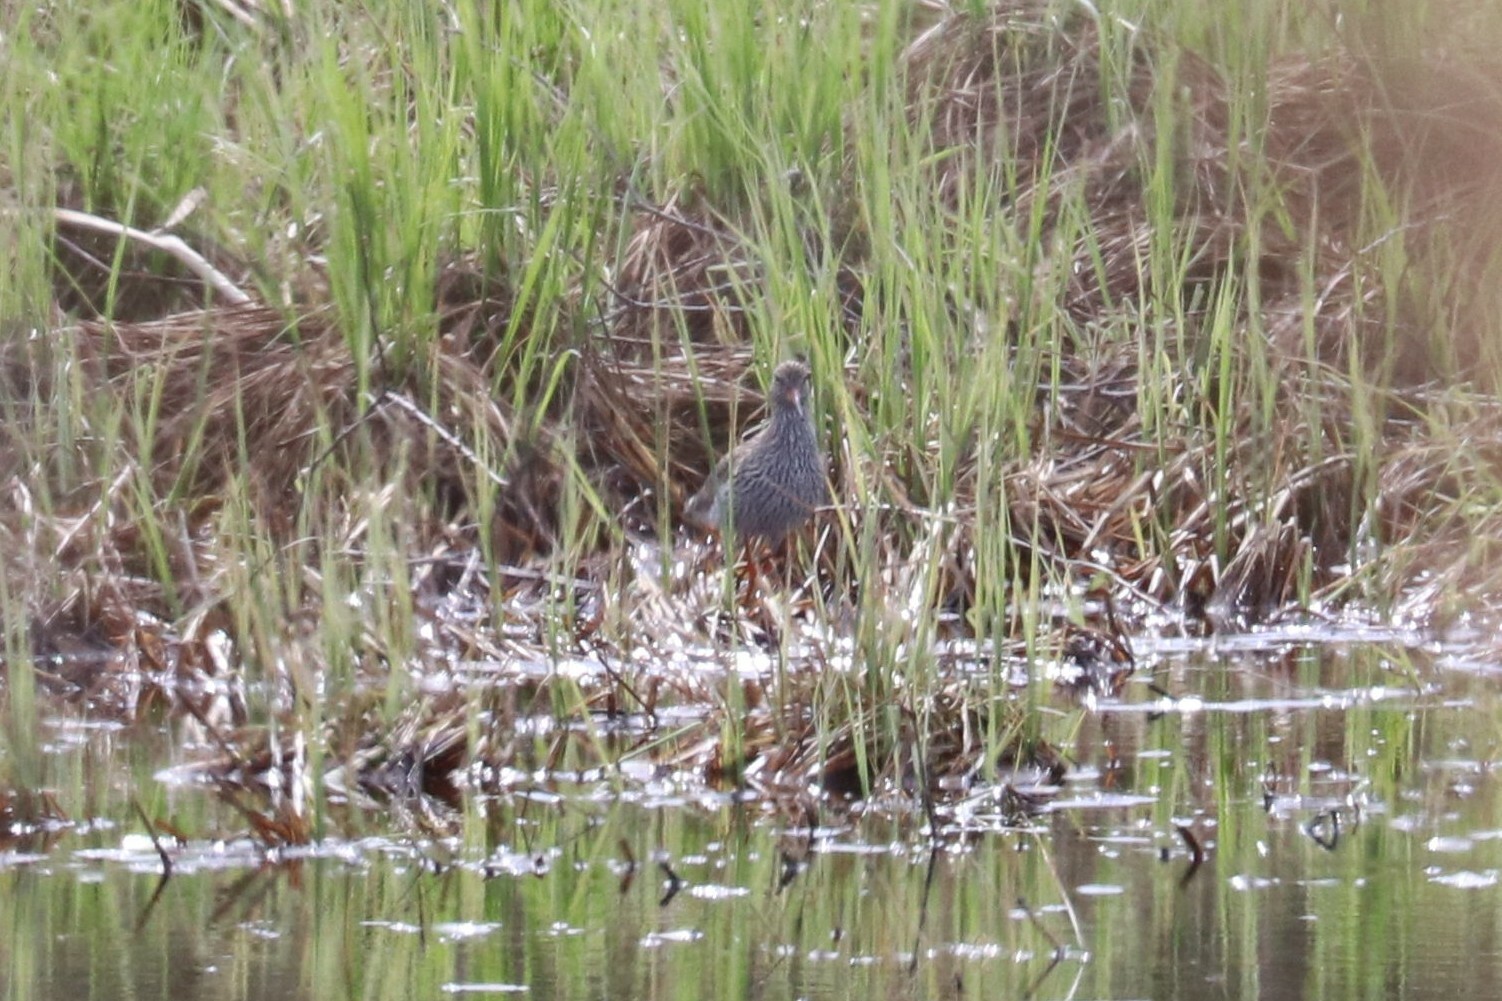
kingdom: Animalia
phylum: Chordata
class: Aves
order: Charadriiformes
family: Scolopacidae
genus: Tringa
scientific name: Tringa totanus
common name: Common redshank
